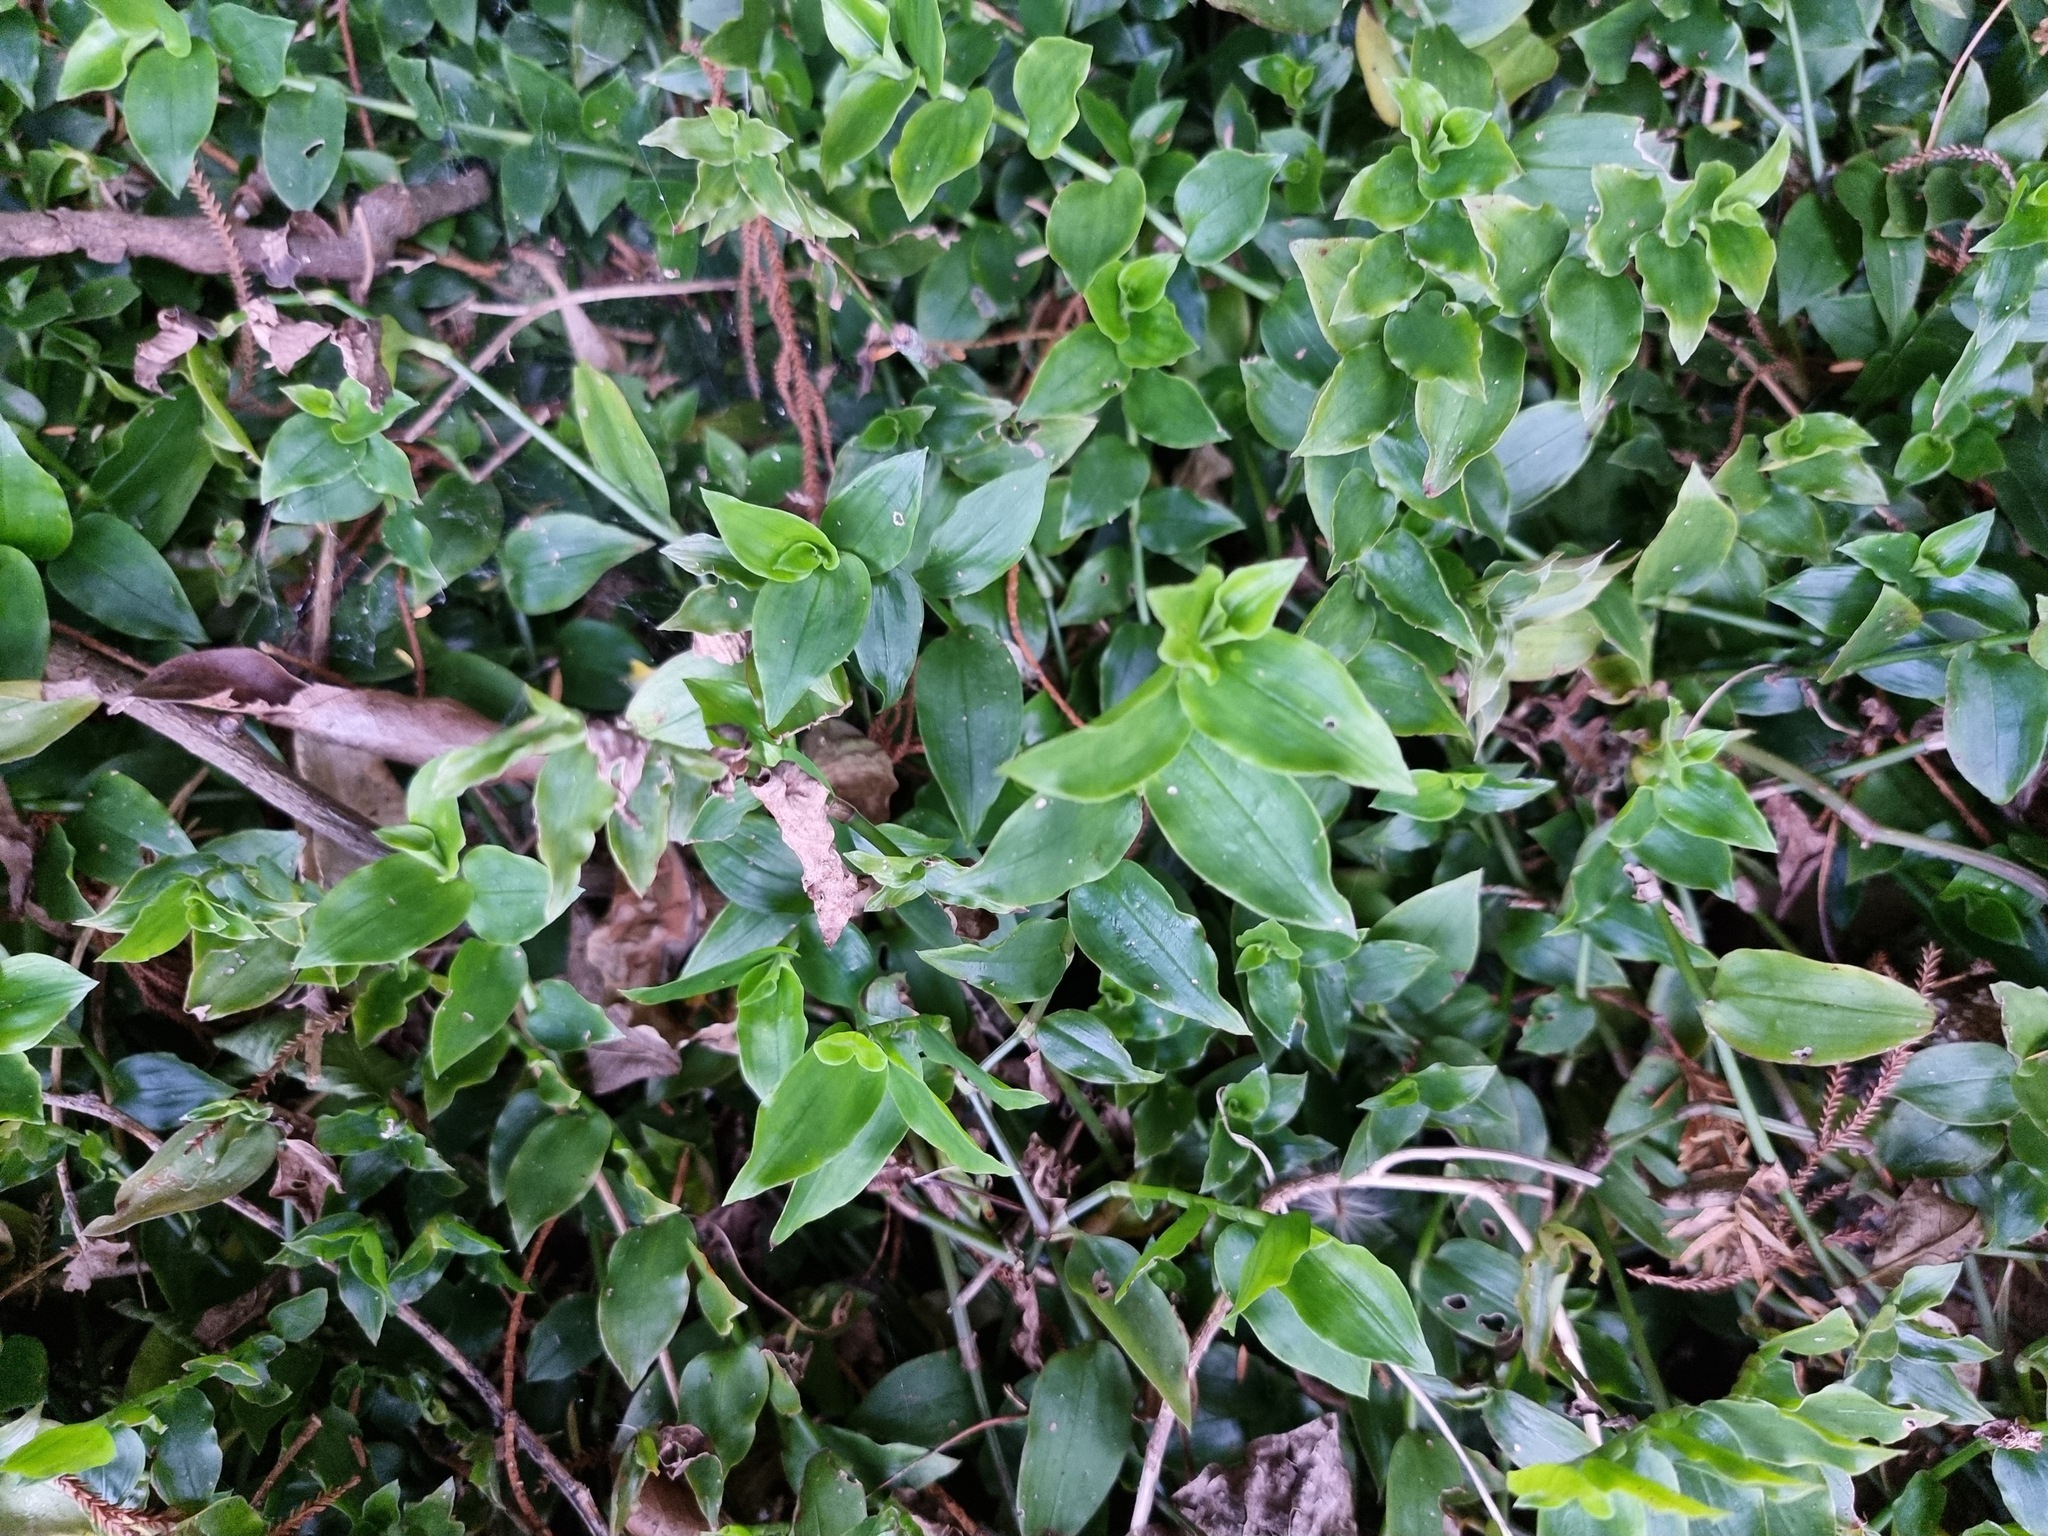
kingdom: Plantae
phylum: Tracheophyta
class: Liliopsida
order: Commelinales
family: Commelinaceae
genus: Tradescantia
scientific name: Tradescantia fluminensis
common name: Wandering-jew
